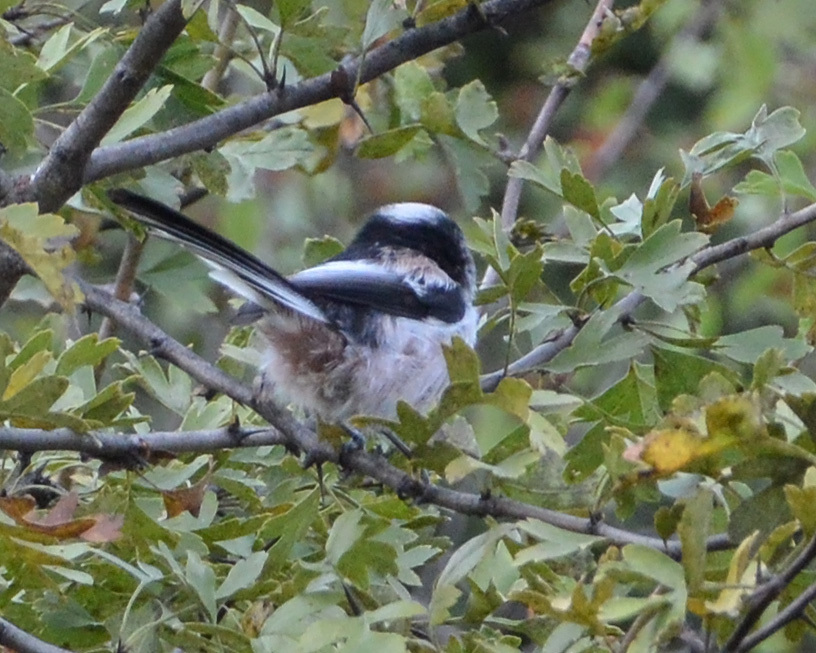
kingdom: Animalia
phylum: Chordata
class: Aves
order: Passeriformes
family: Aegithalidae
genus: Aegithalos
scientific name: Aegithalos caudatus
